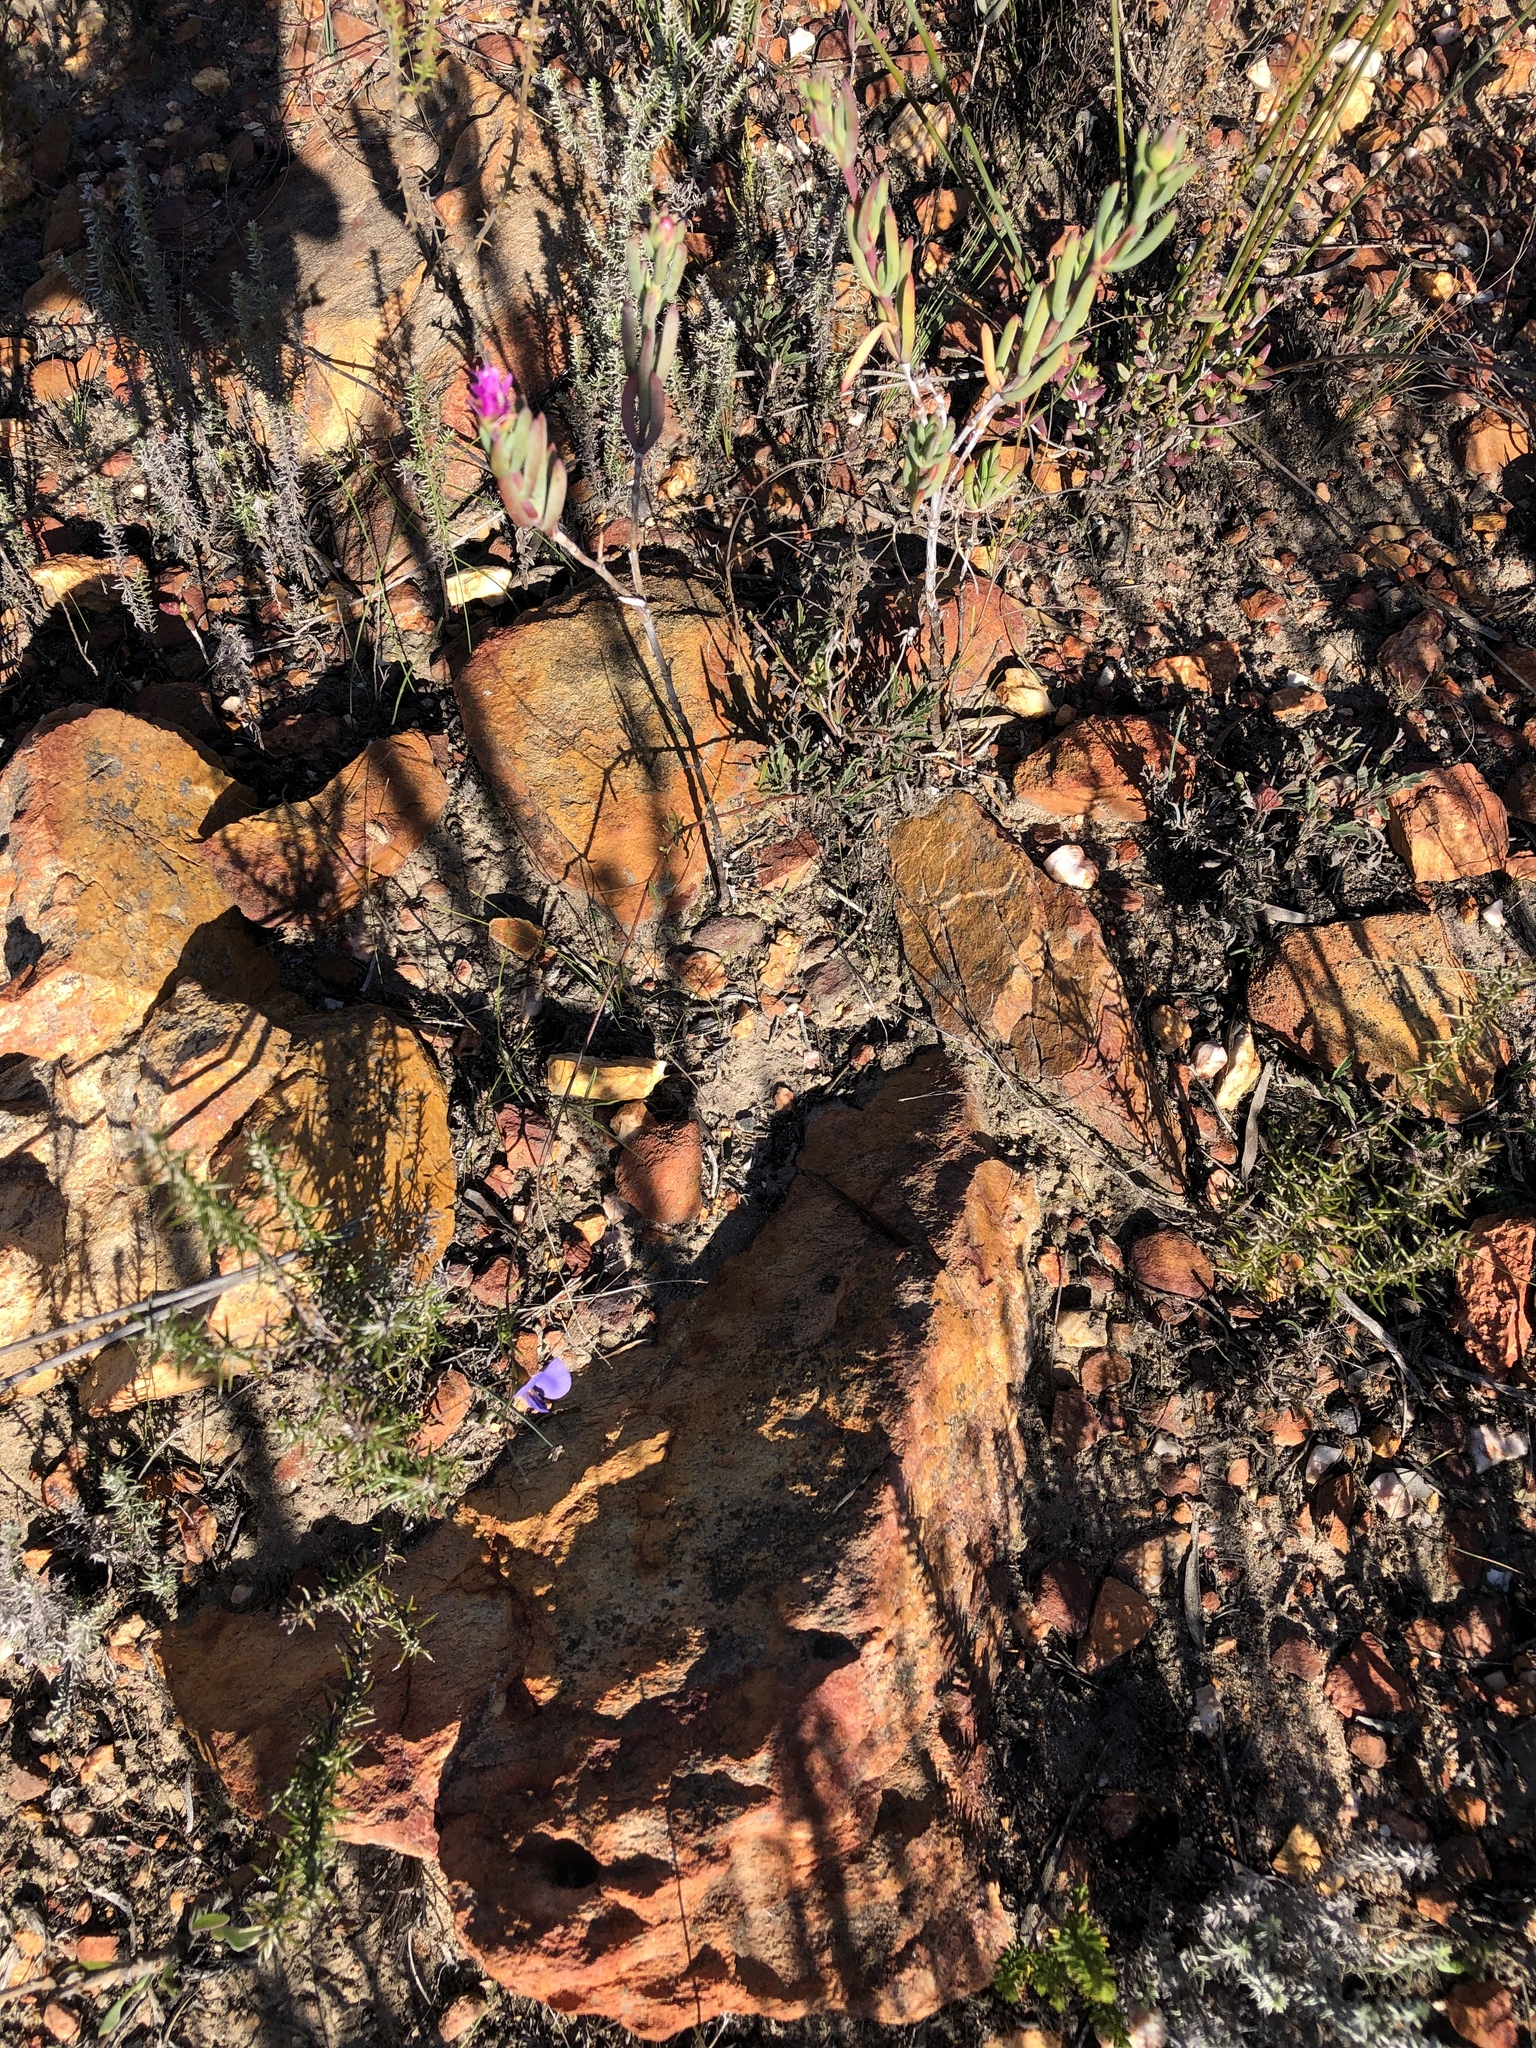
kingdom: Plantae
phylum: Tracheophyta
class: Magnoliopsida
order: Fabales
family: Fabaceae
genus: Lotononis
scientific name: Lotononis filiformis
